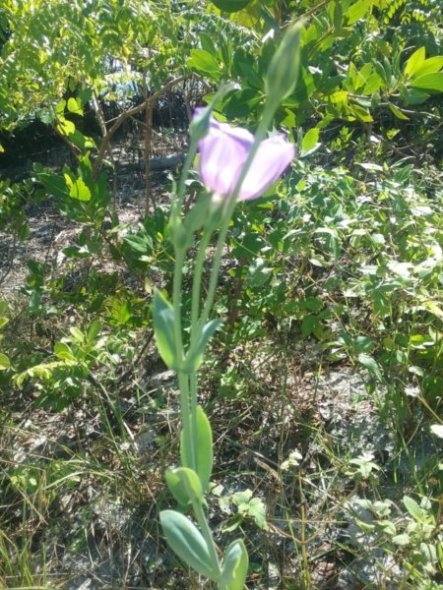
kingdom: Plantae
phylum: Tracheophyta
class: Magnoliopsida
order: Gentianales
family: Gentianaceae
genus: Eustoma
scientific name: Eustoma exaltatum
